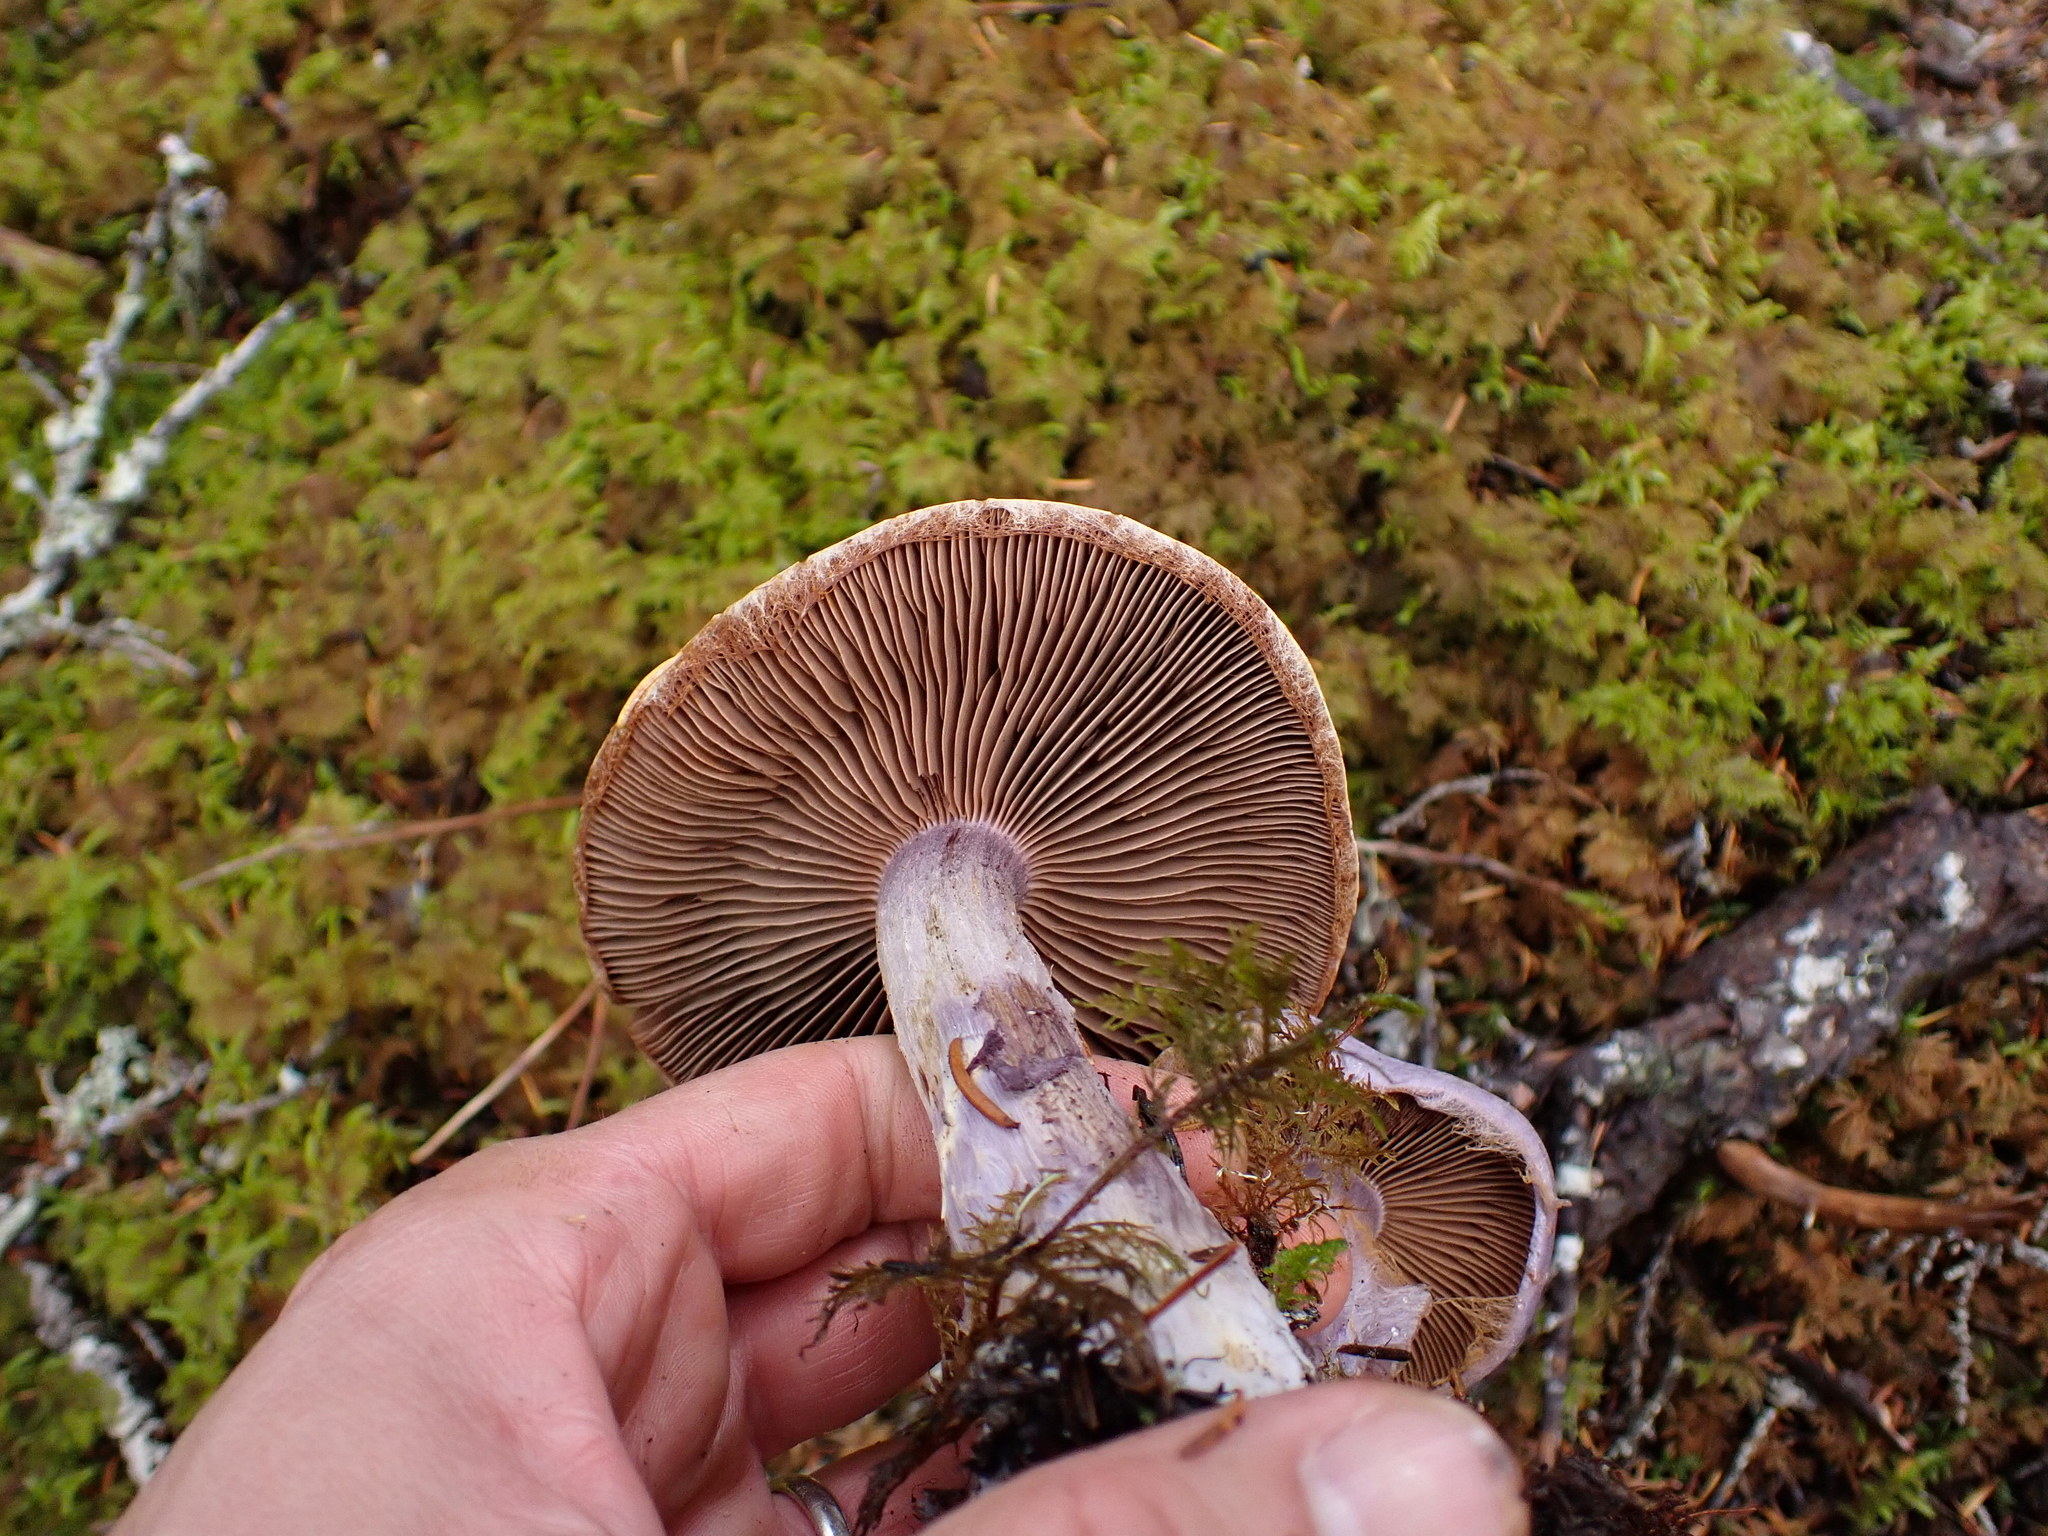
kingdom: Fungi
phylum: Basidiomycota
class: Agaricomycetes
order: Agaricales
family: Cortinariaceae
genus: Cortinarius
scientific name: Cortinarius traganus
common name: Gassy webcap
